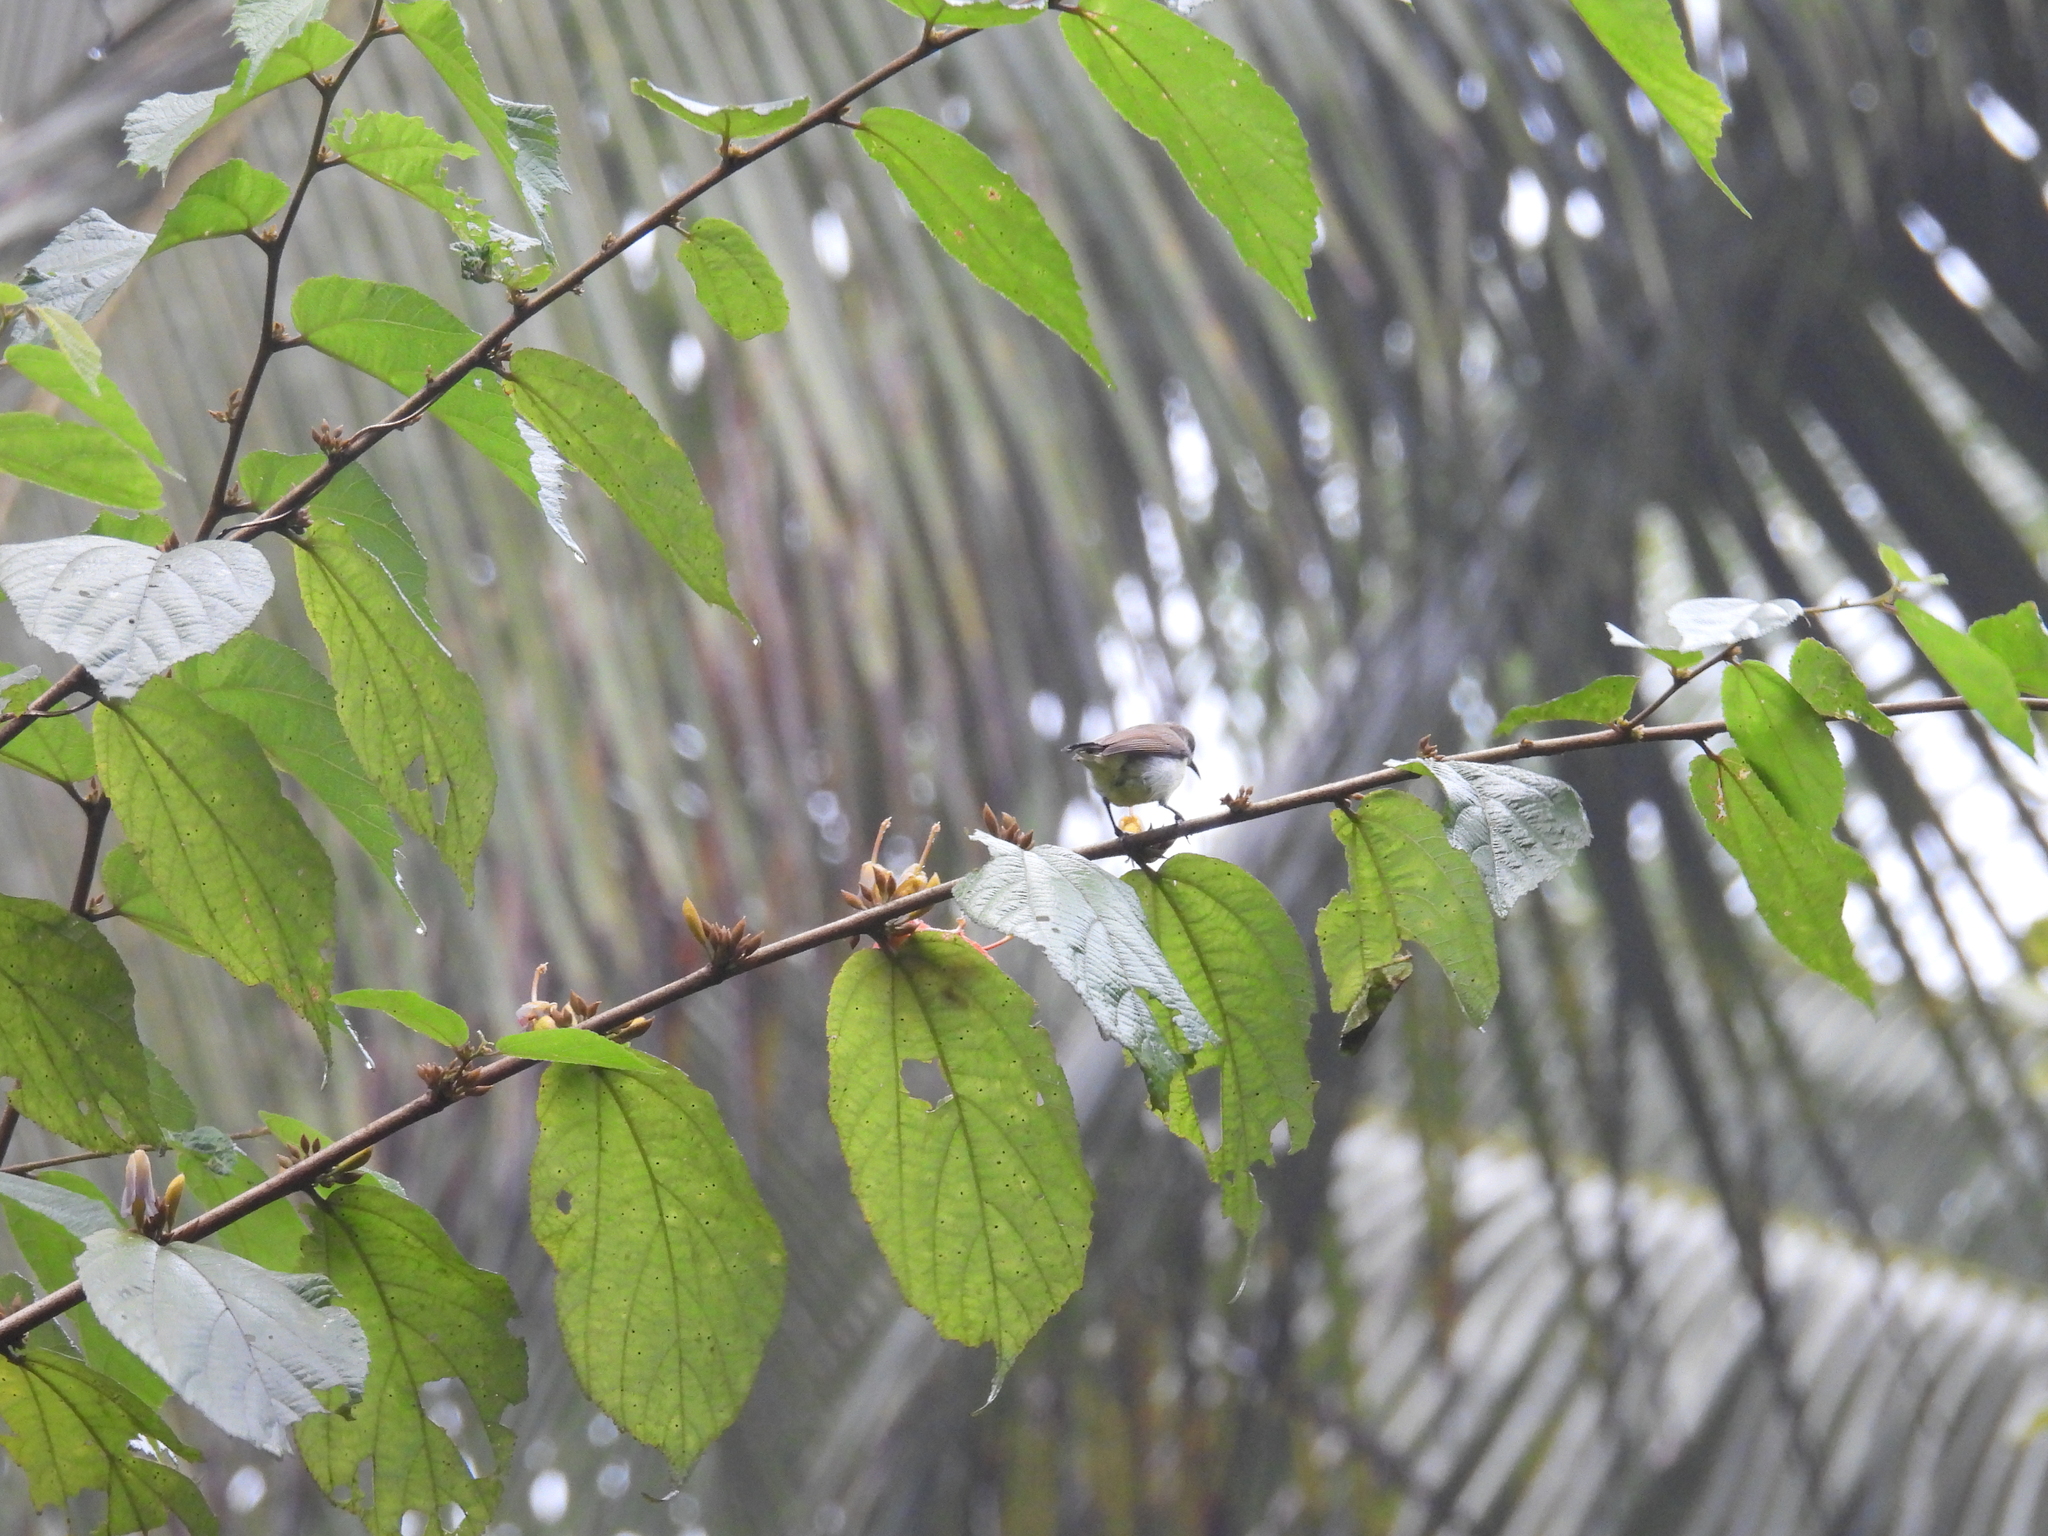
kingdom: Animalia
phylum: Chordata
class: Aves
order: Passeriformes
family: Nectariniidae
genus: Cinnyris
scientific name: Cinnyris asiaticus
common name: Purple sunbird
